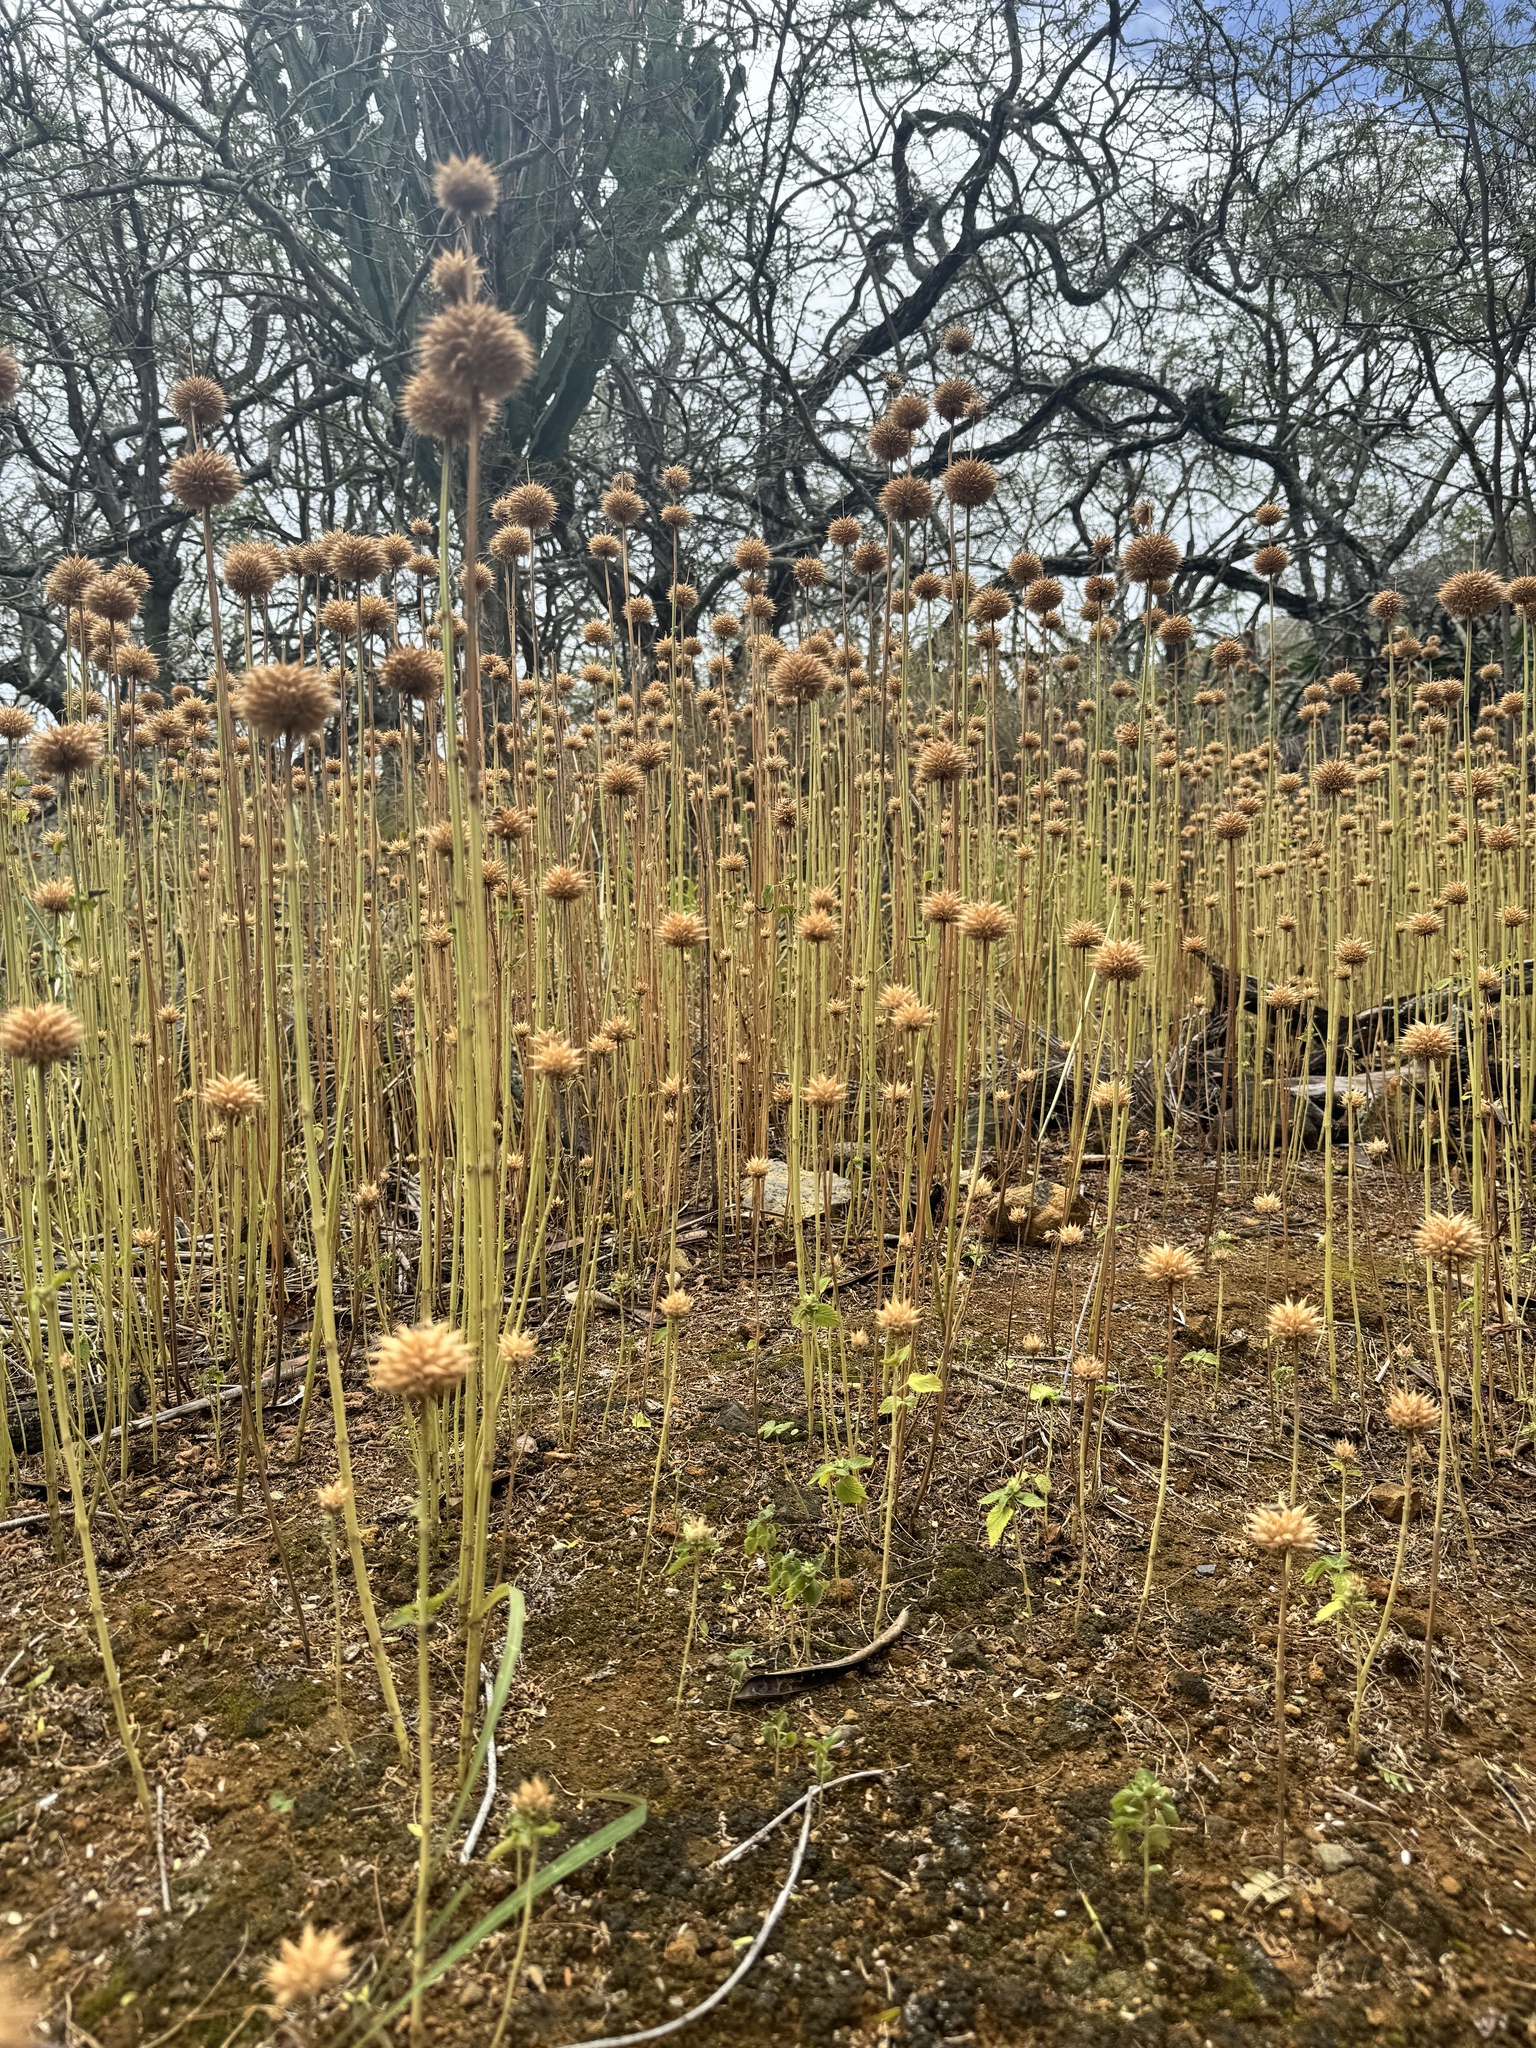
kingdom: Plantae
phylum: Tracheophyta
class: Magnoliopsida
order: Lamiales
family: Lamiaceae
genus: Leonotis
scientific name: Leonotis nepetifolia
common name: Christmas candlestick
